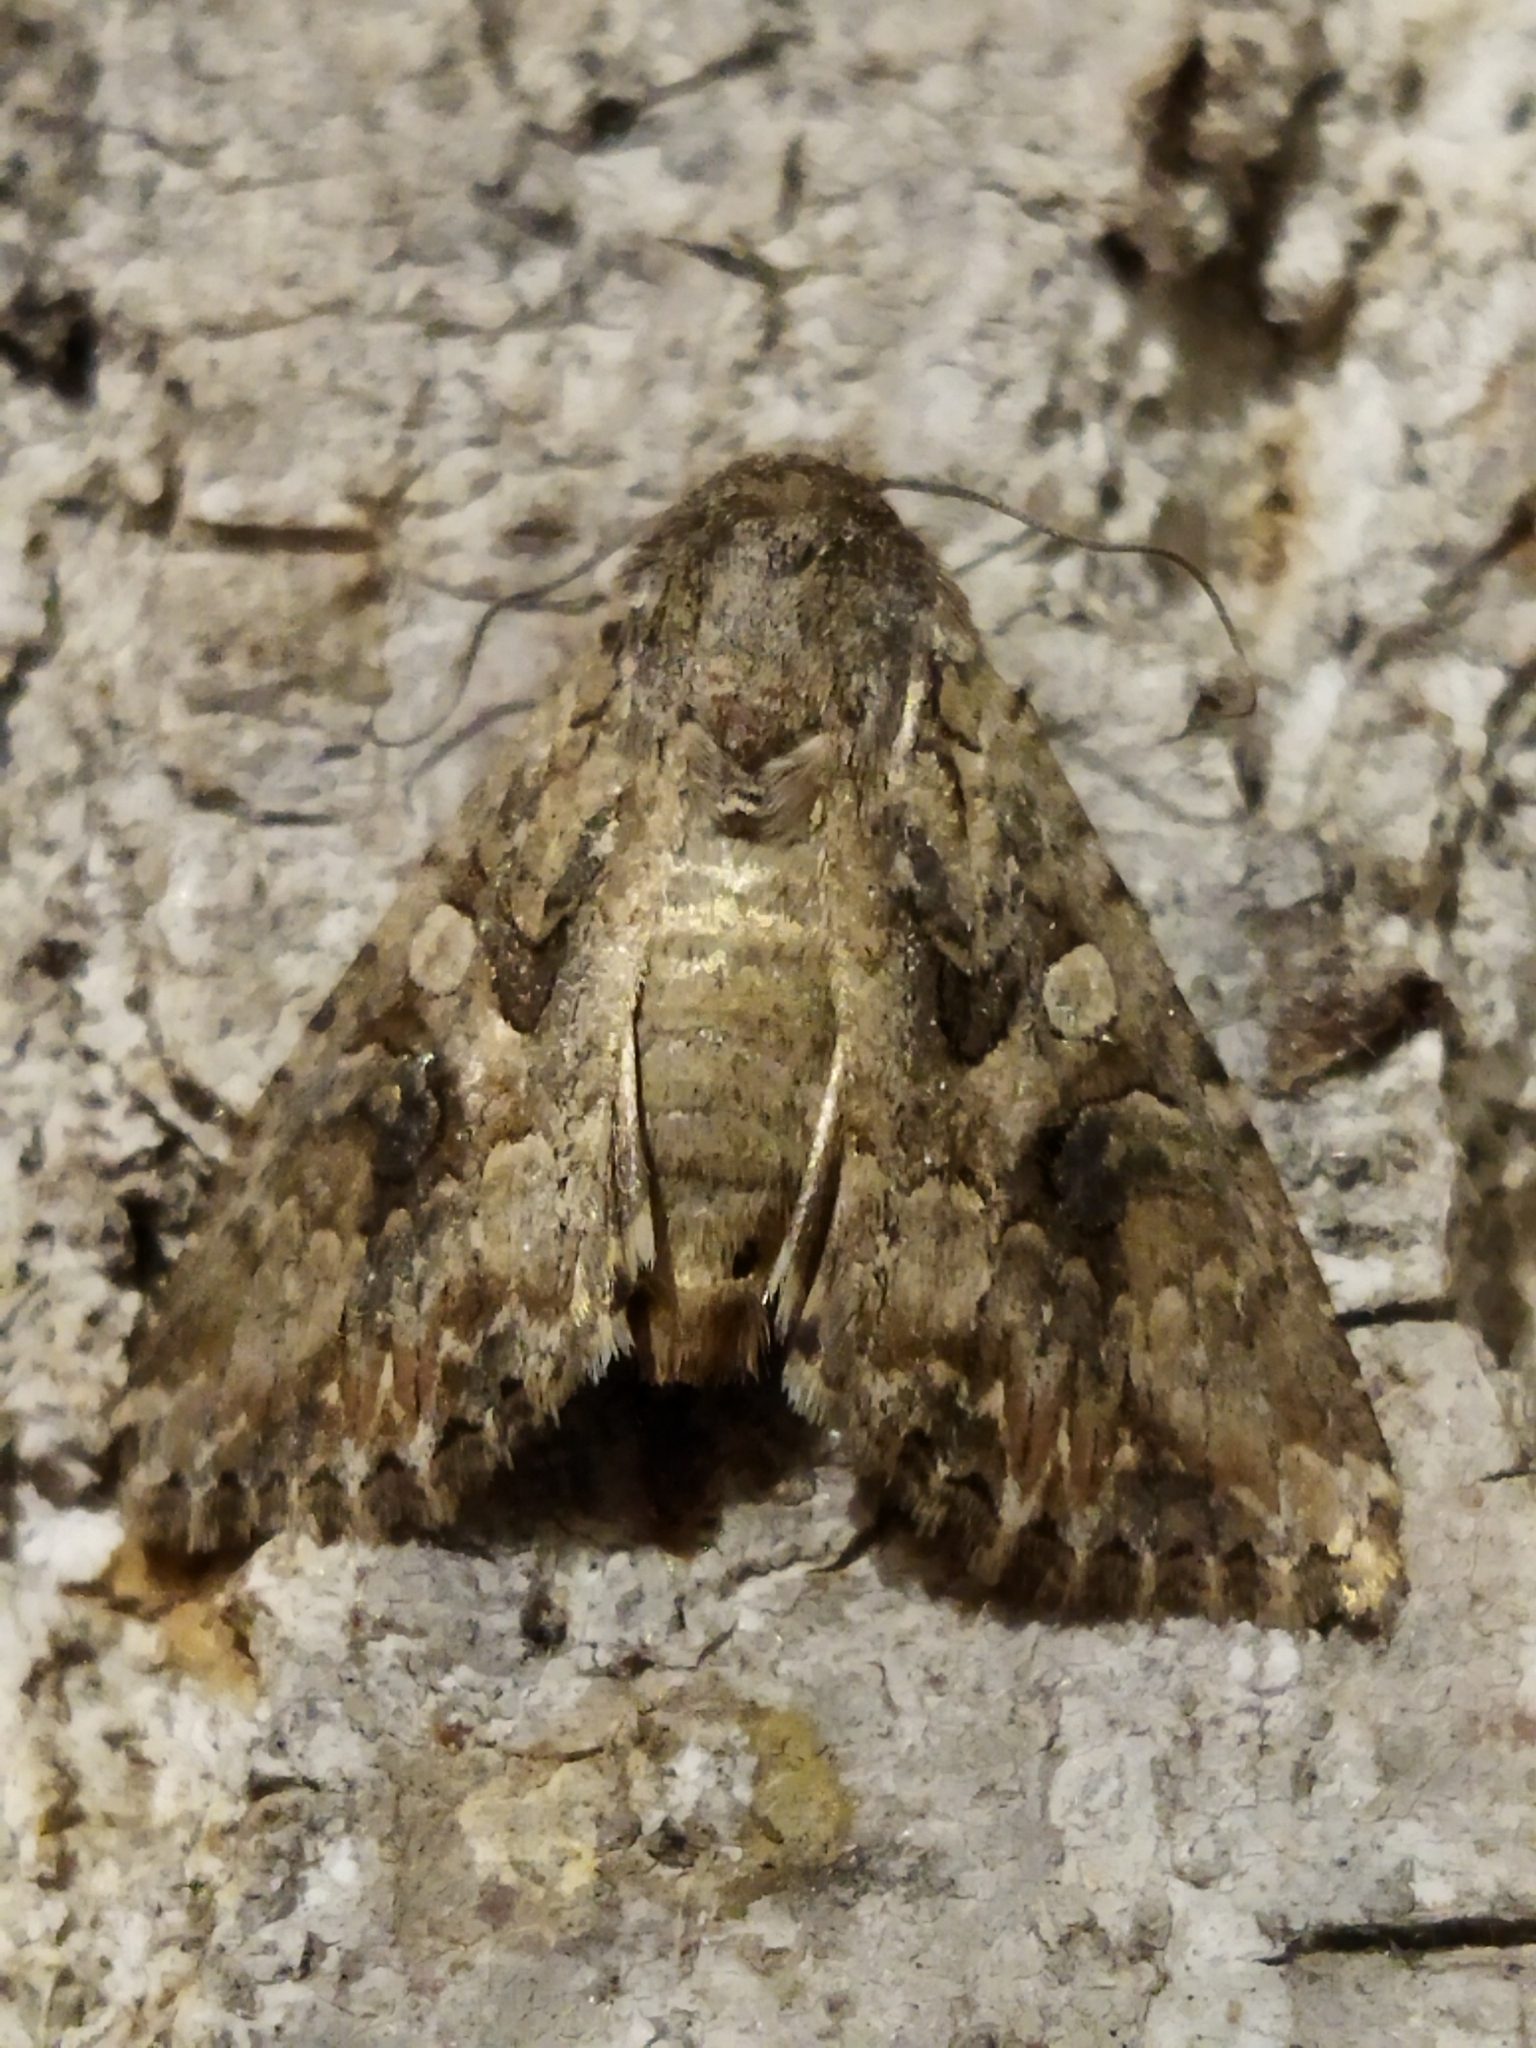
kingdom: Animalia
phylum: Arthropoda
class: Insecta
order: Lepidoptera
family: Noctuidae
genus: Anarta
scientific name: Anarta trifolii
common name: Clover cutworm moth
